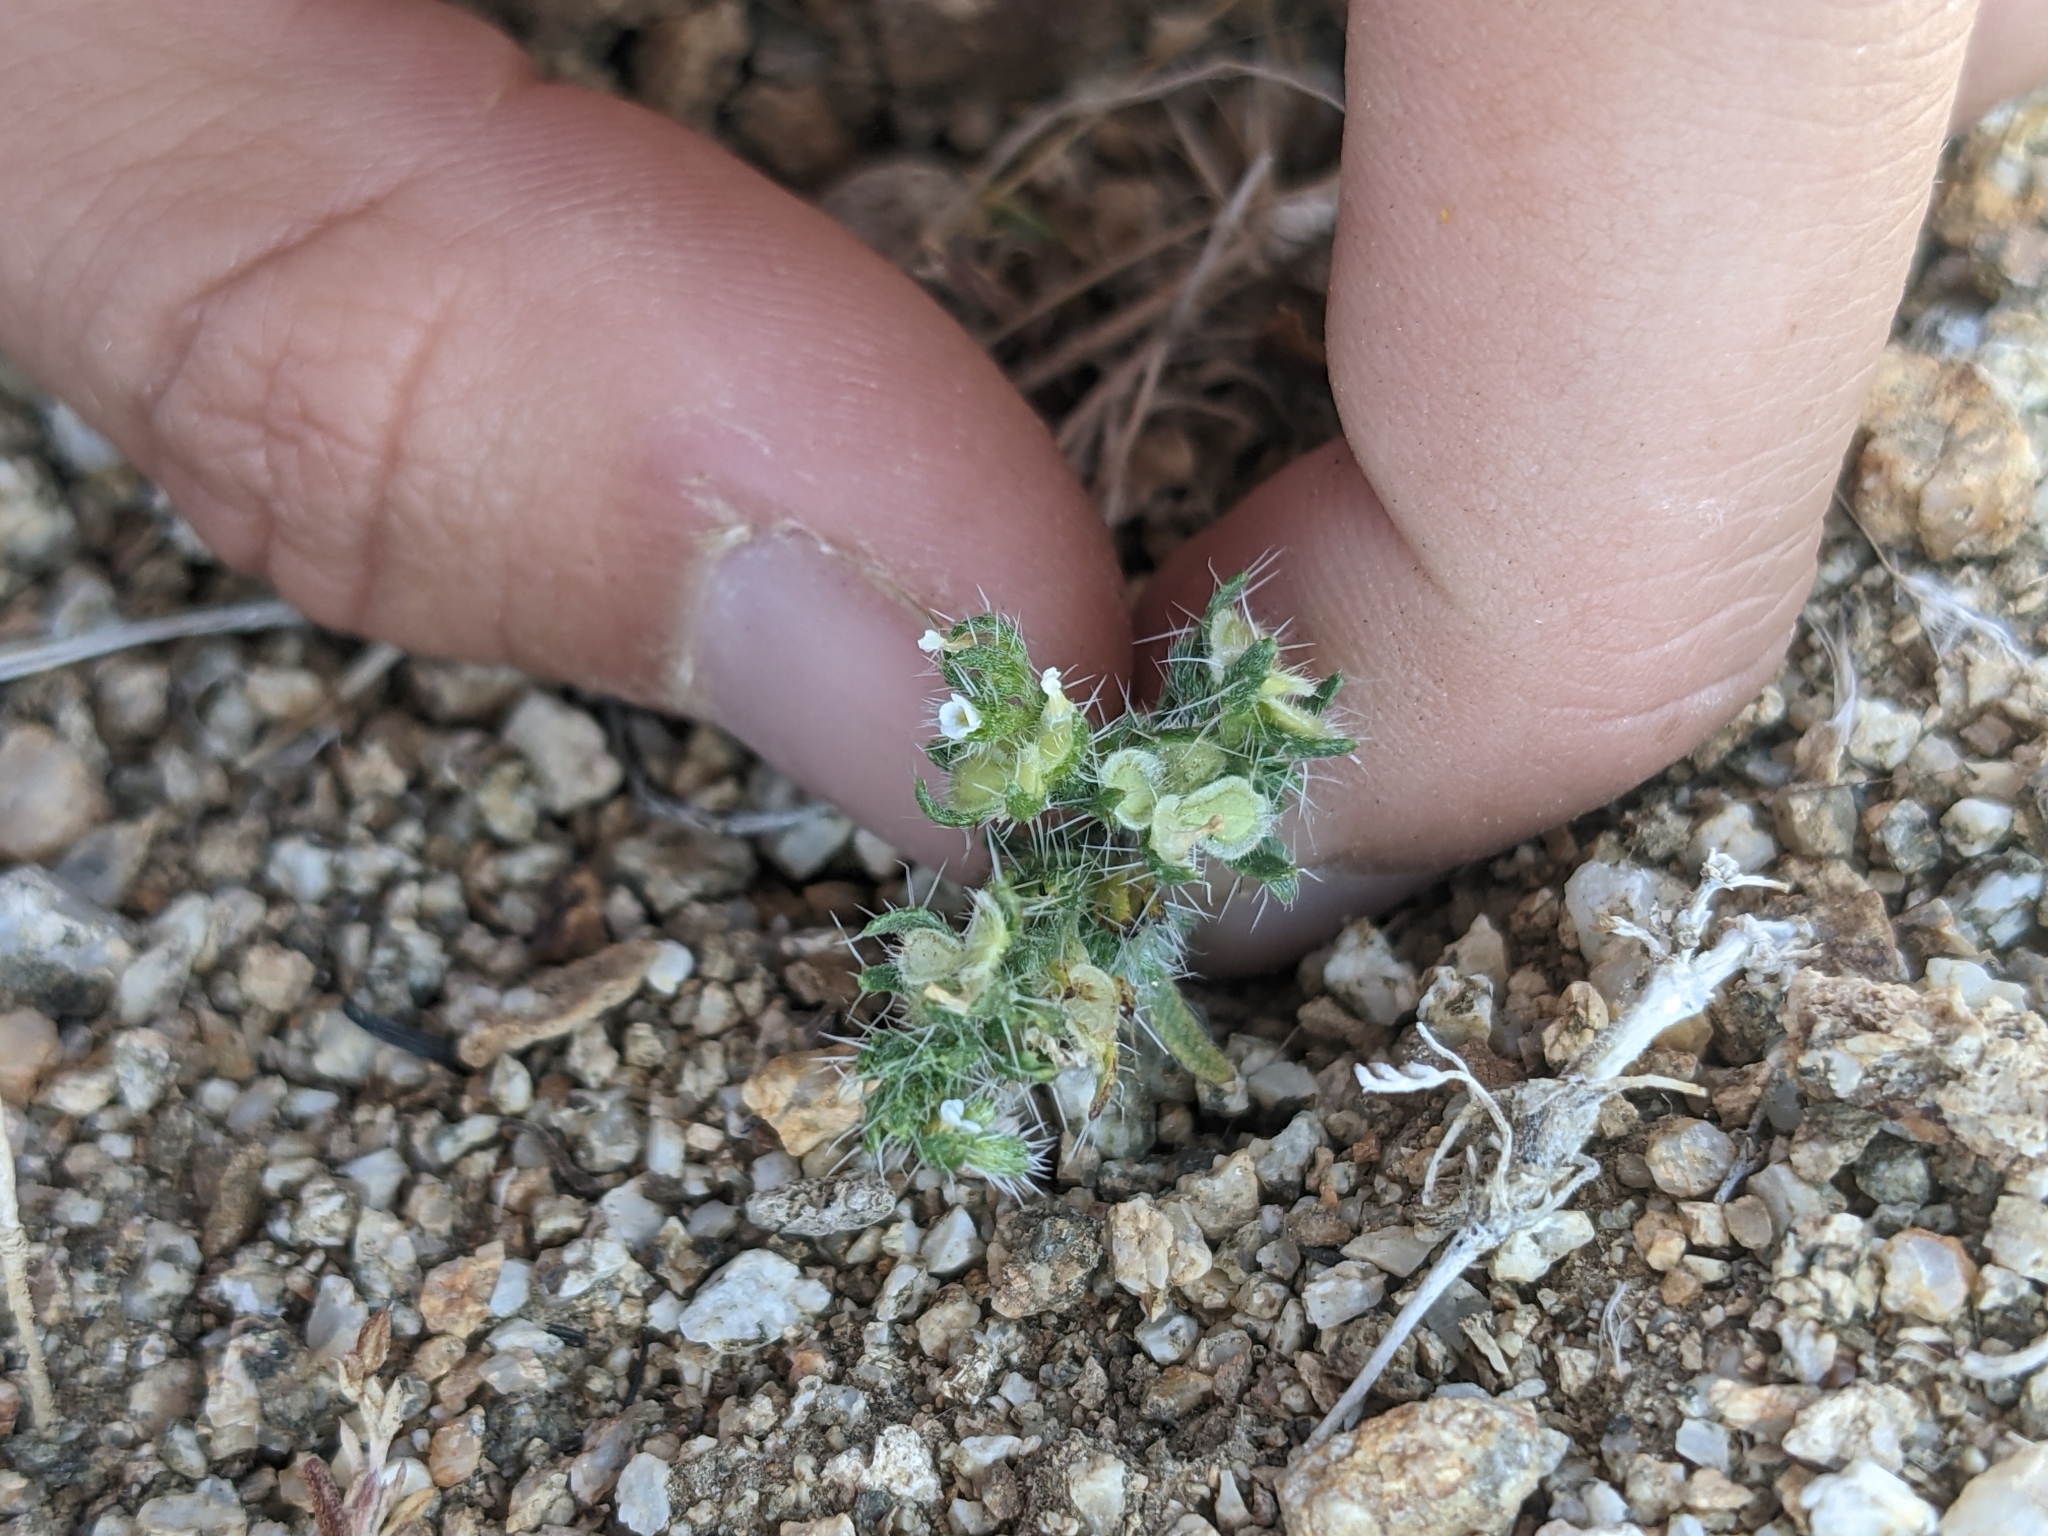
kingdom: Plantae
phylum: Tracheophyta
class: Magnoliopsida
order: Boraginales
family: Boraginaceae
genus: Pectocarya
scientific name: Pectocarya setosa
